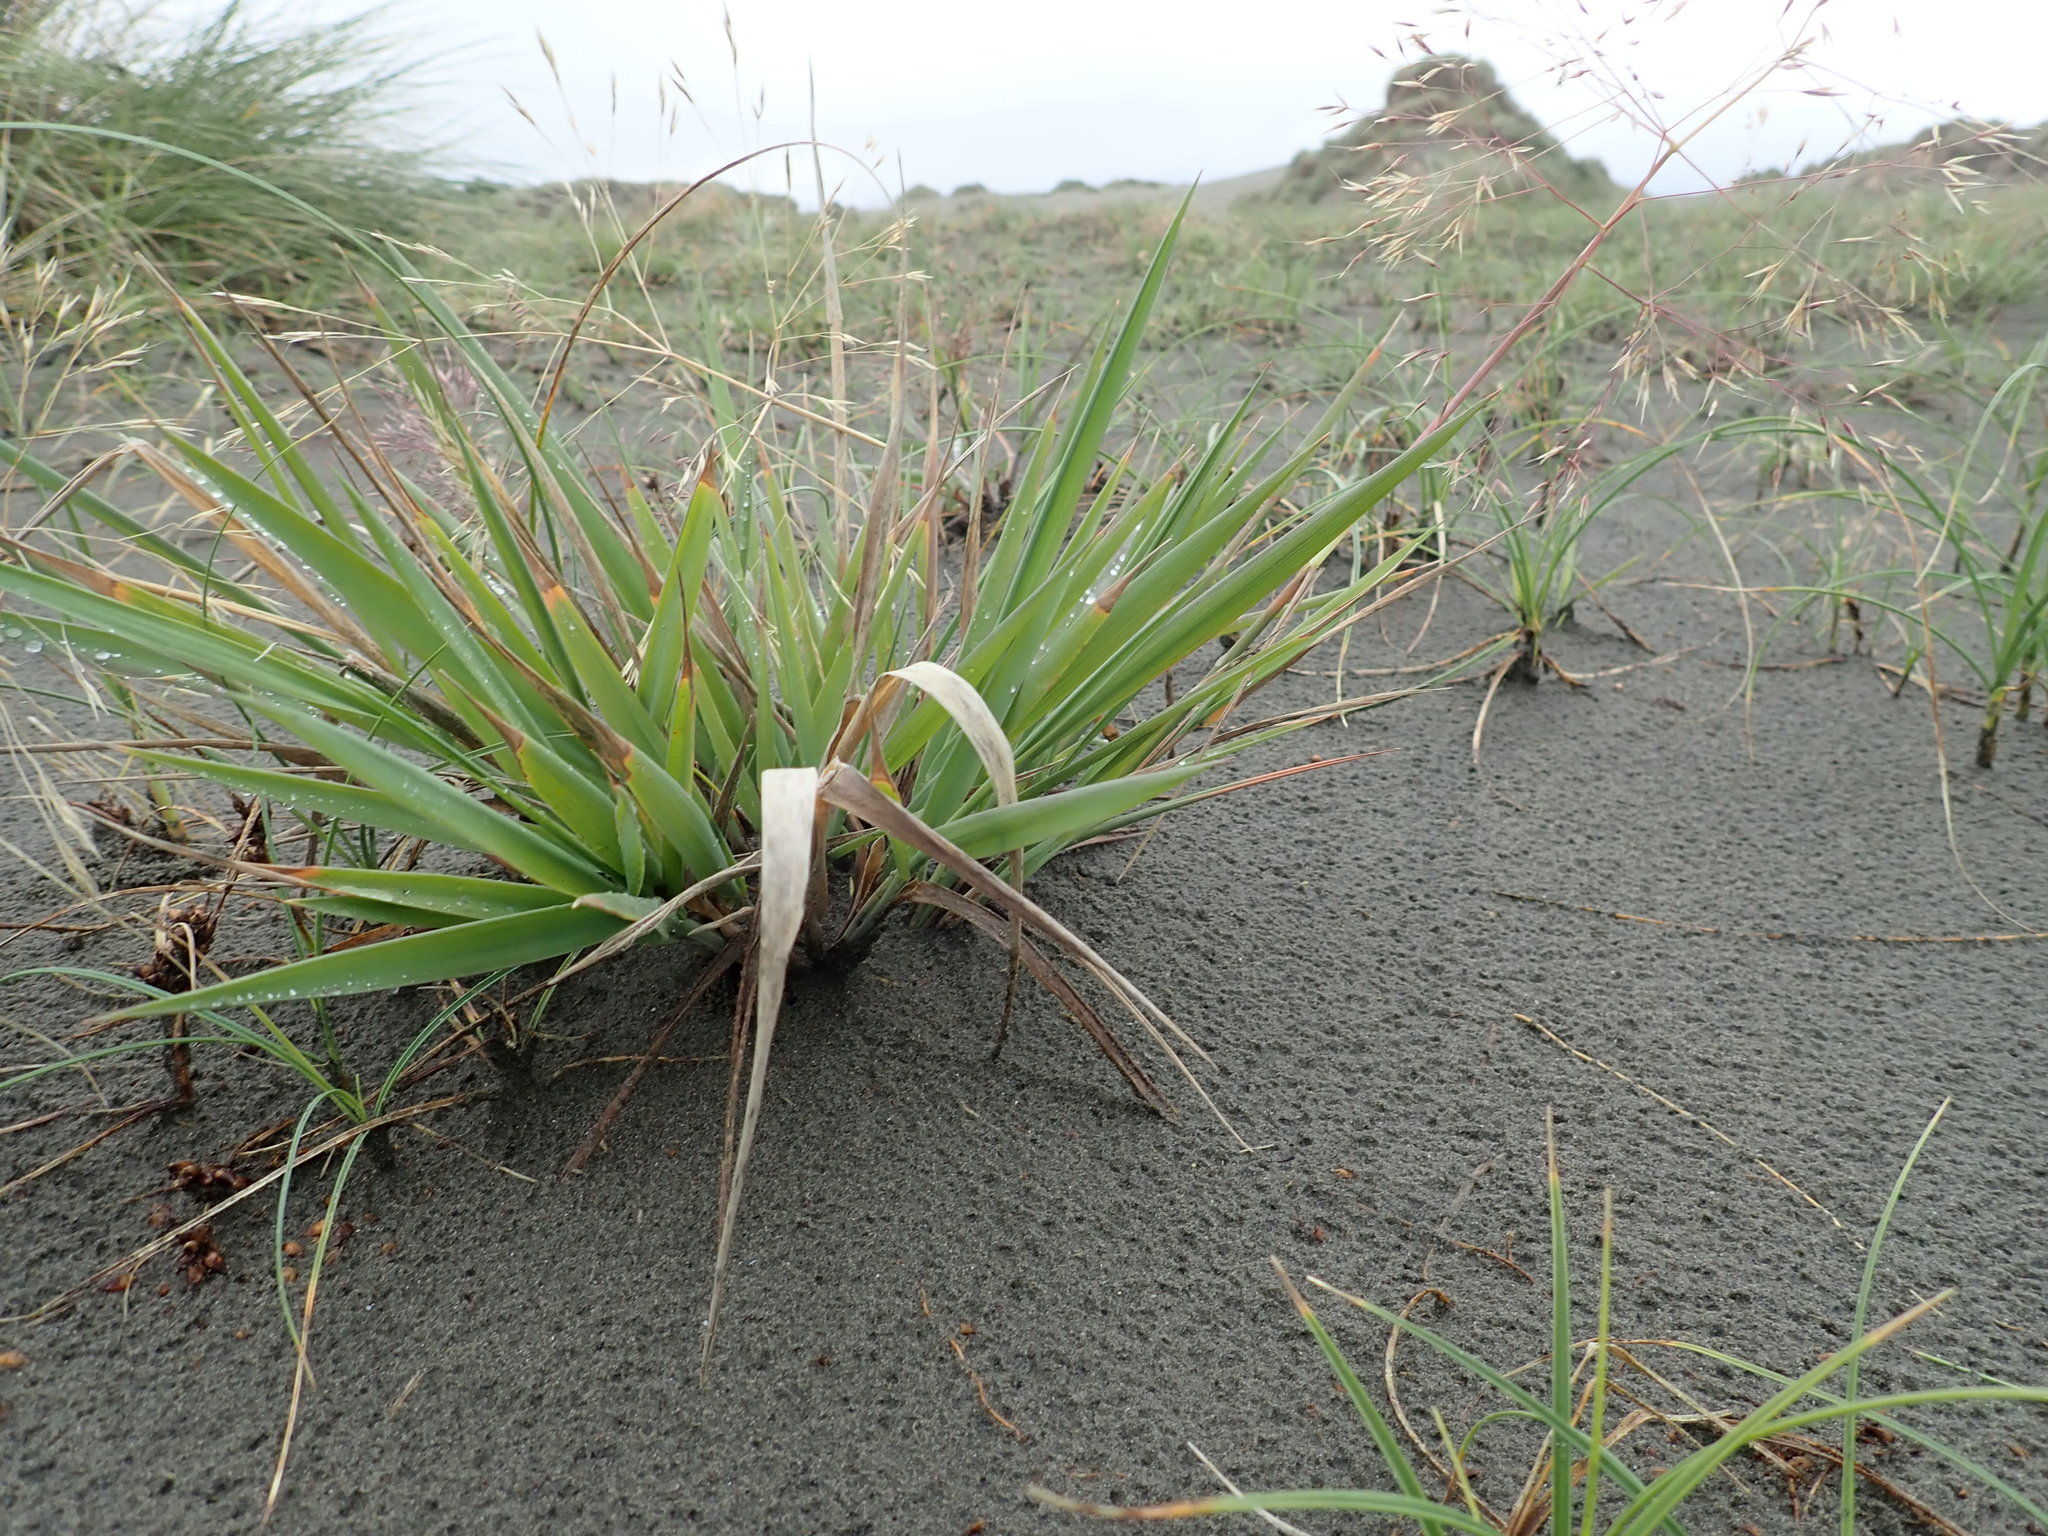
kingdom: Plantae
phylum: Tracheophyta
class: Liliopsida
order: Poales
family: Poaceae
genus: Lachnagrostis
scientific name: Lachnagrostis billardierei
